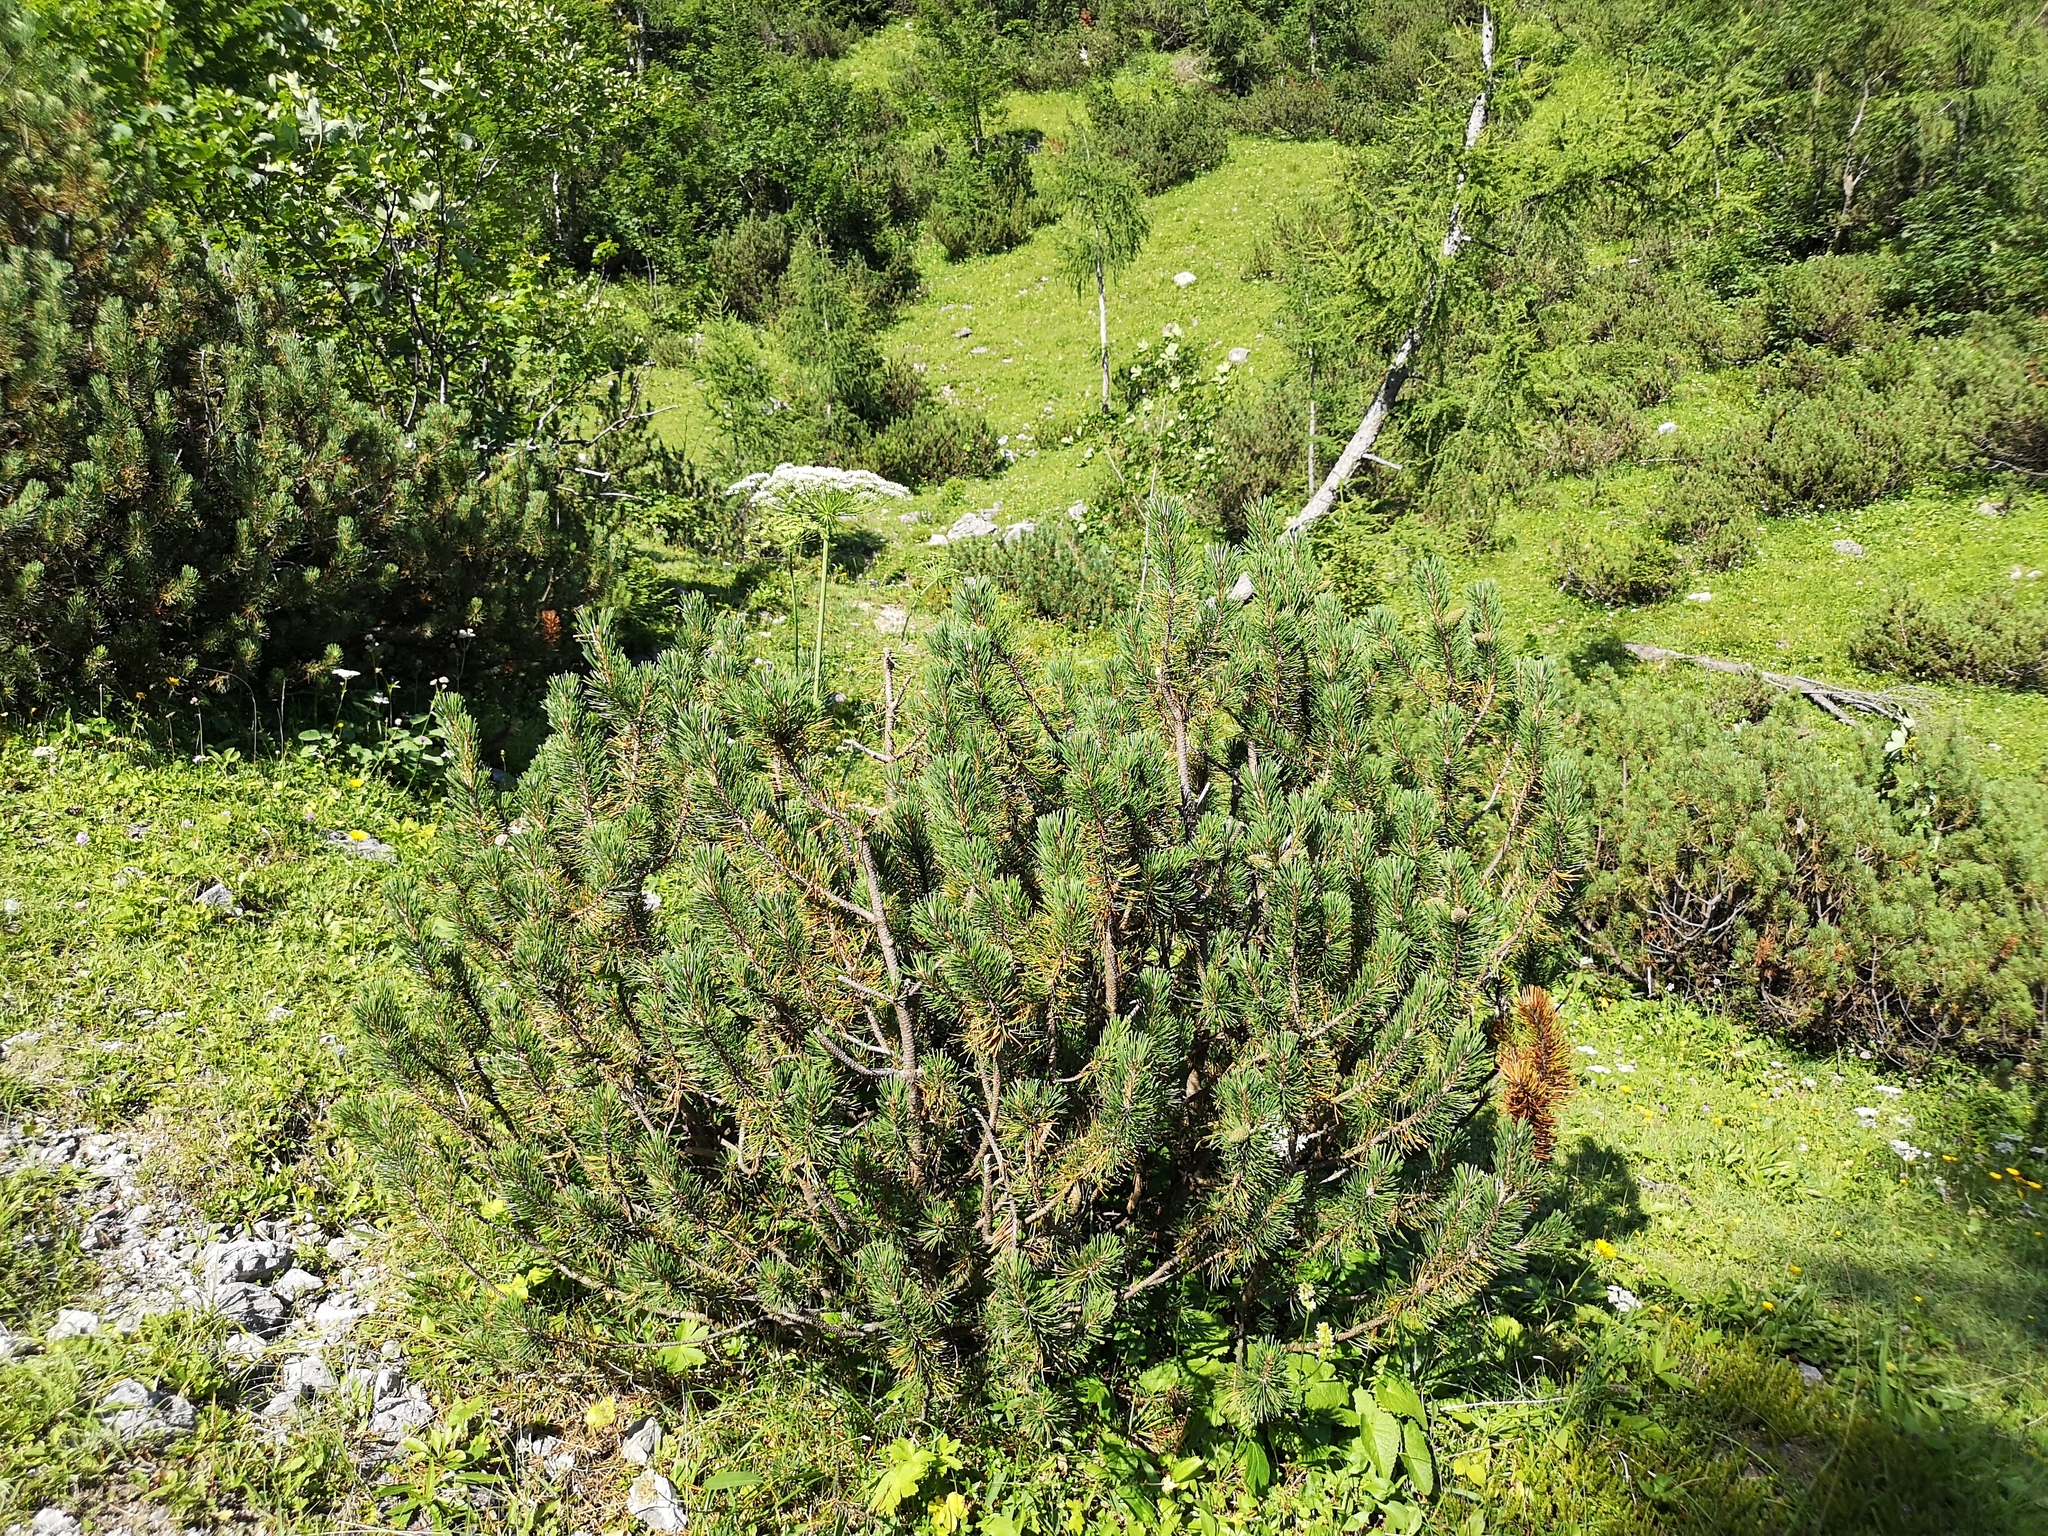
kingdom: Plantae
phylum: Tracheophyta
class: Pinopsida
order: Pinales
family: Pinaceae
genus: Pinus
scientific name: Pinus mugo
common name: Mugo pine
